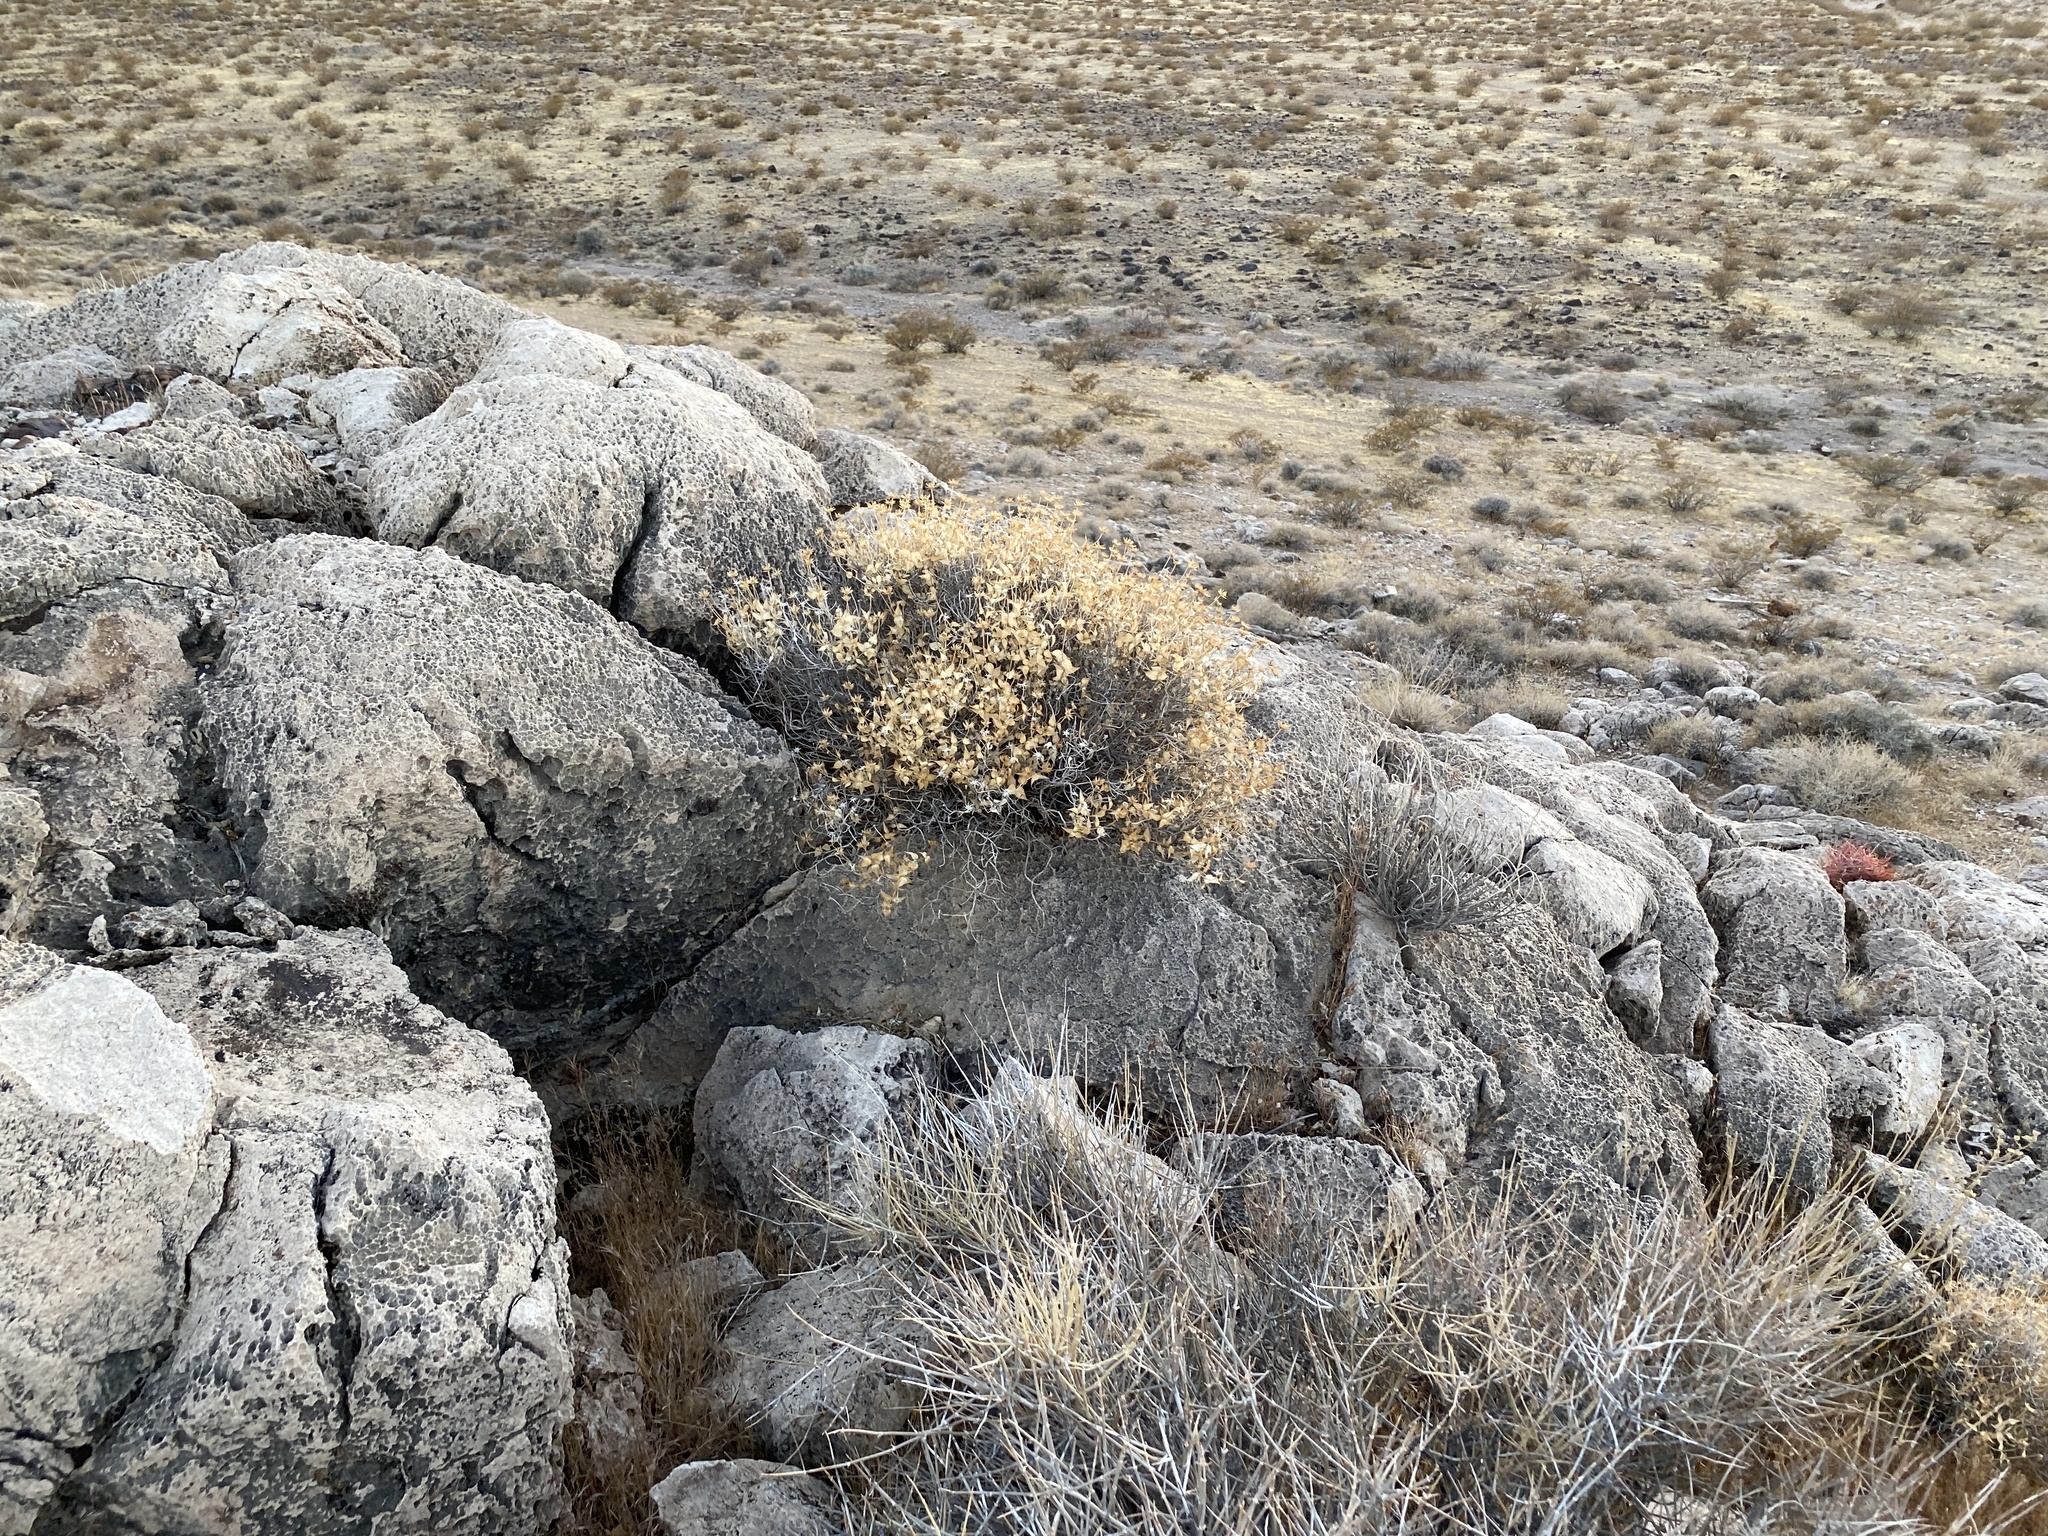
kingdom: Plantae
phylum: Tracheophyta
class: Magnoliopsida
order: Asterales
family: Asteraceae
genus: Brickellia
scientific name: Brickellia atractyloides
